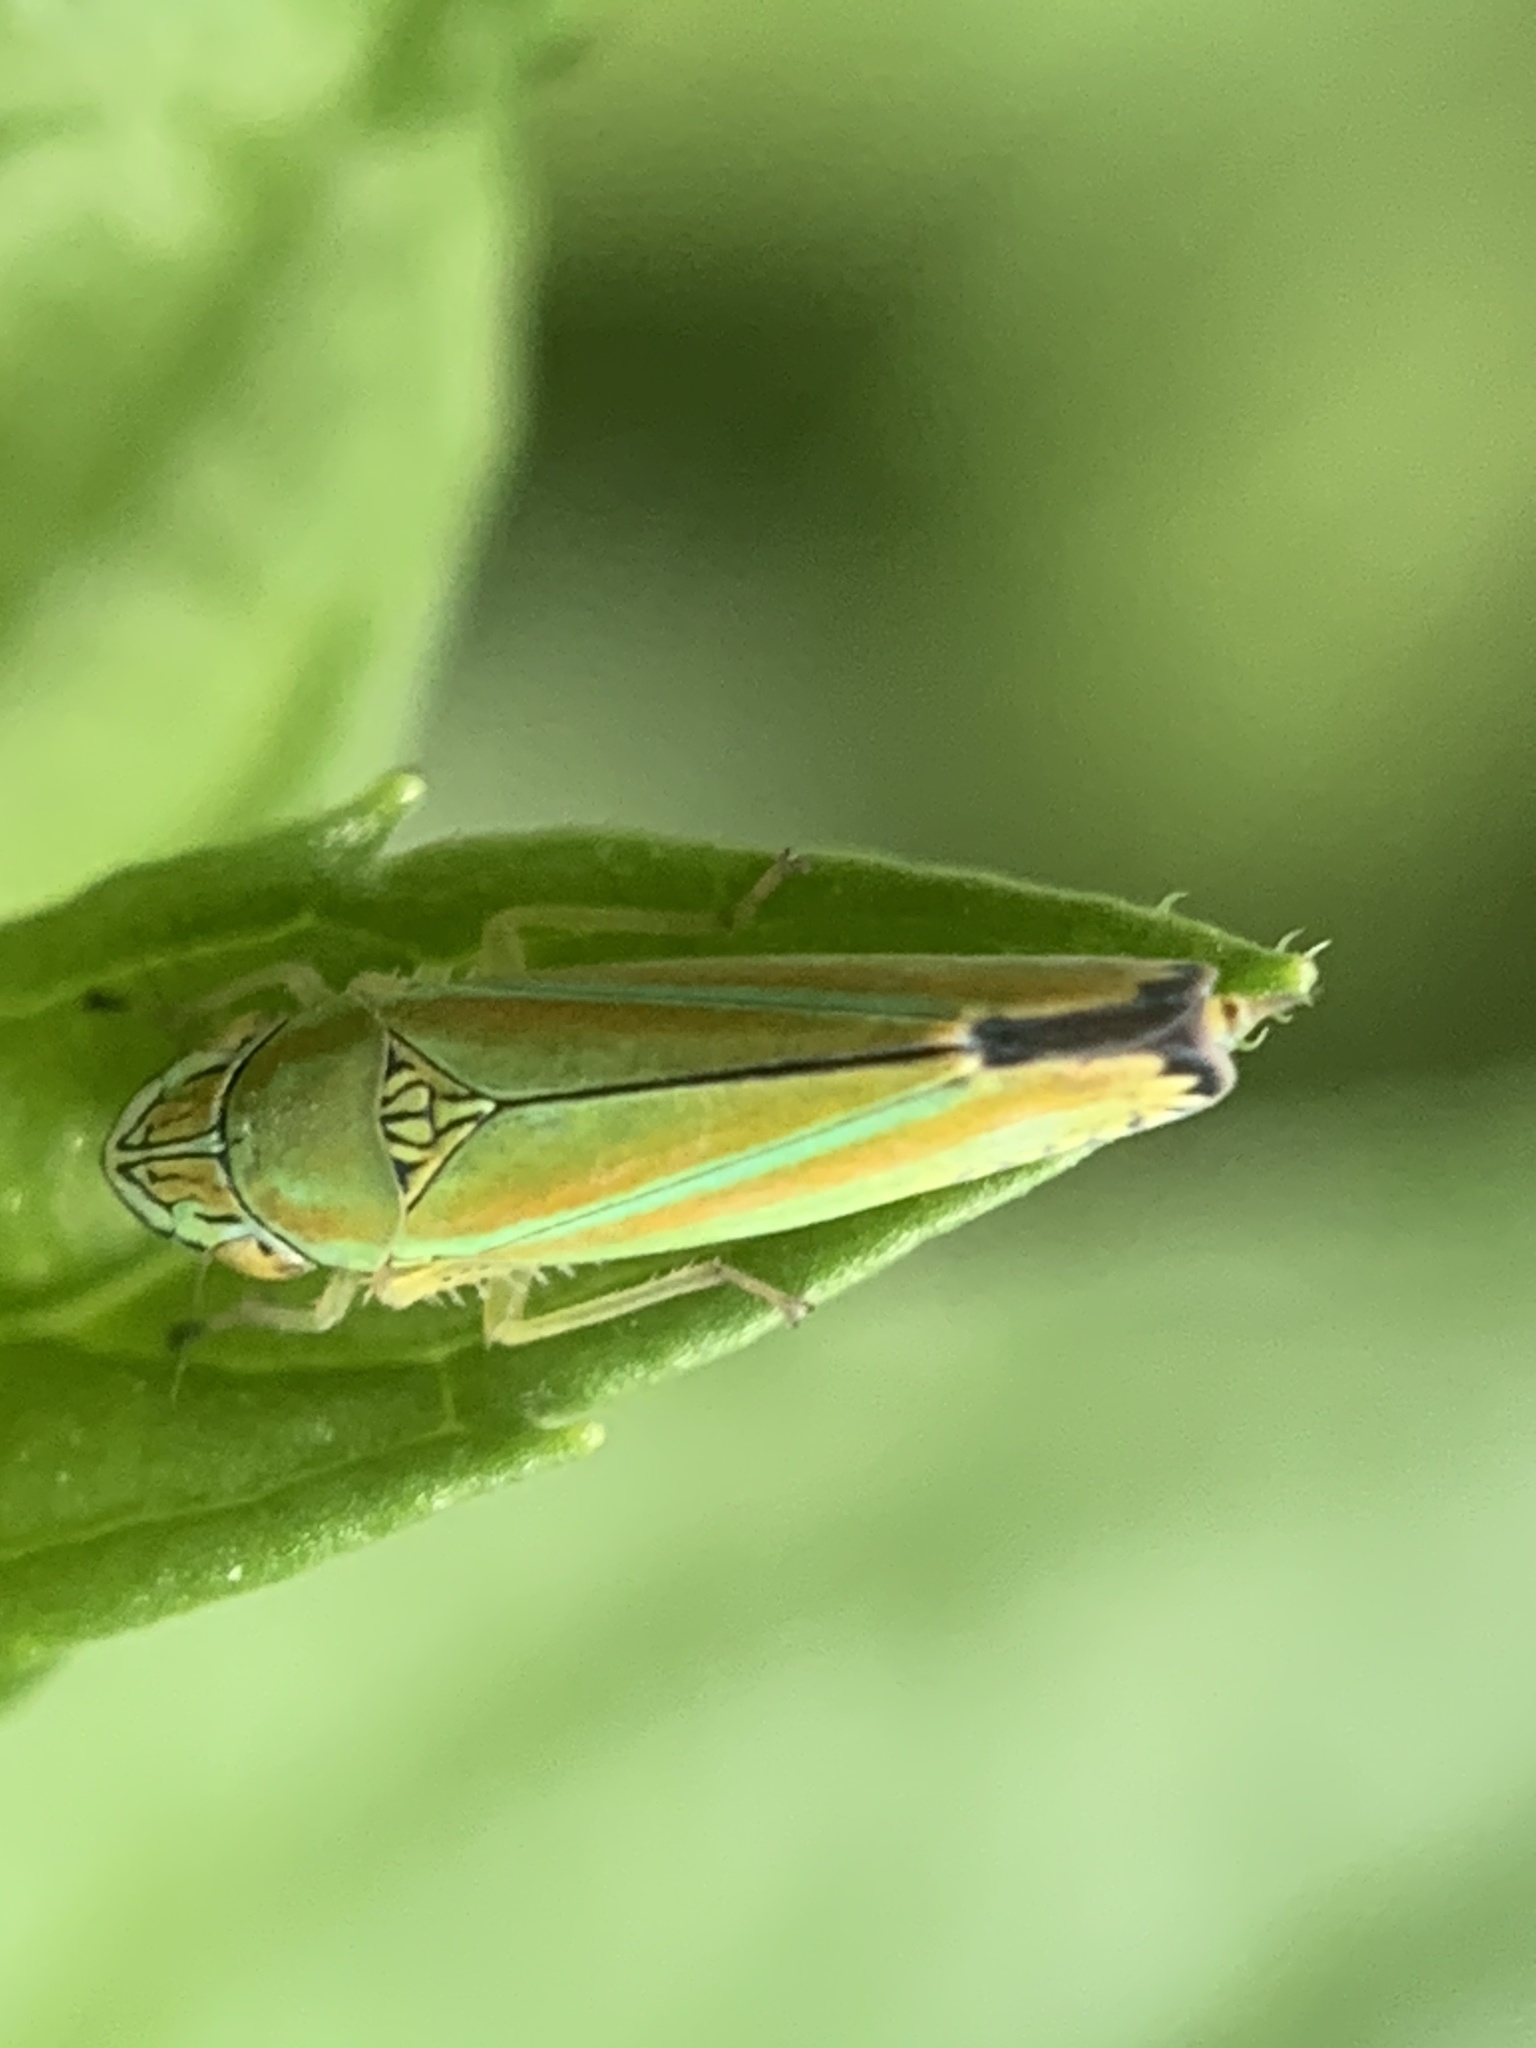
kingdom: Animalia
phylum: Arthropoda
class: Insecta
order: Hemiptera
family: Cicadellidae
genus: Graphocephala
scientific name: Graphocephala versuta
